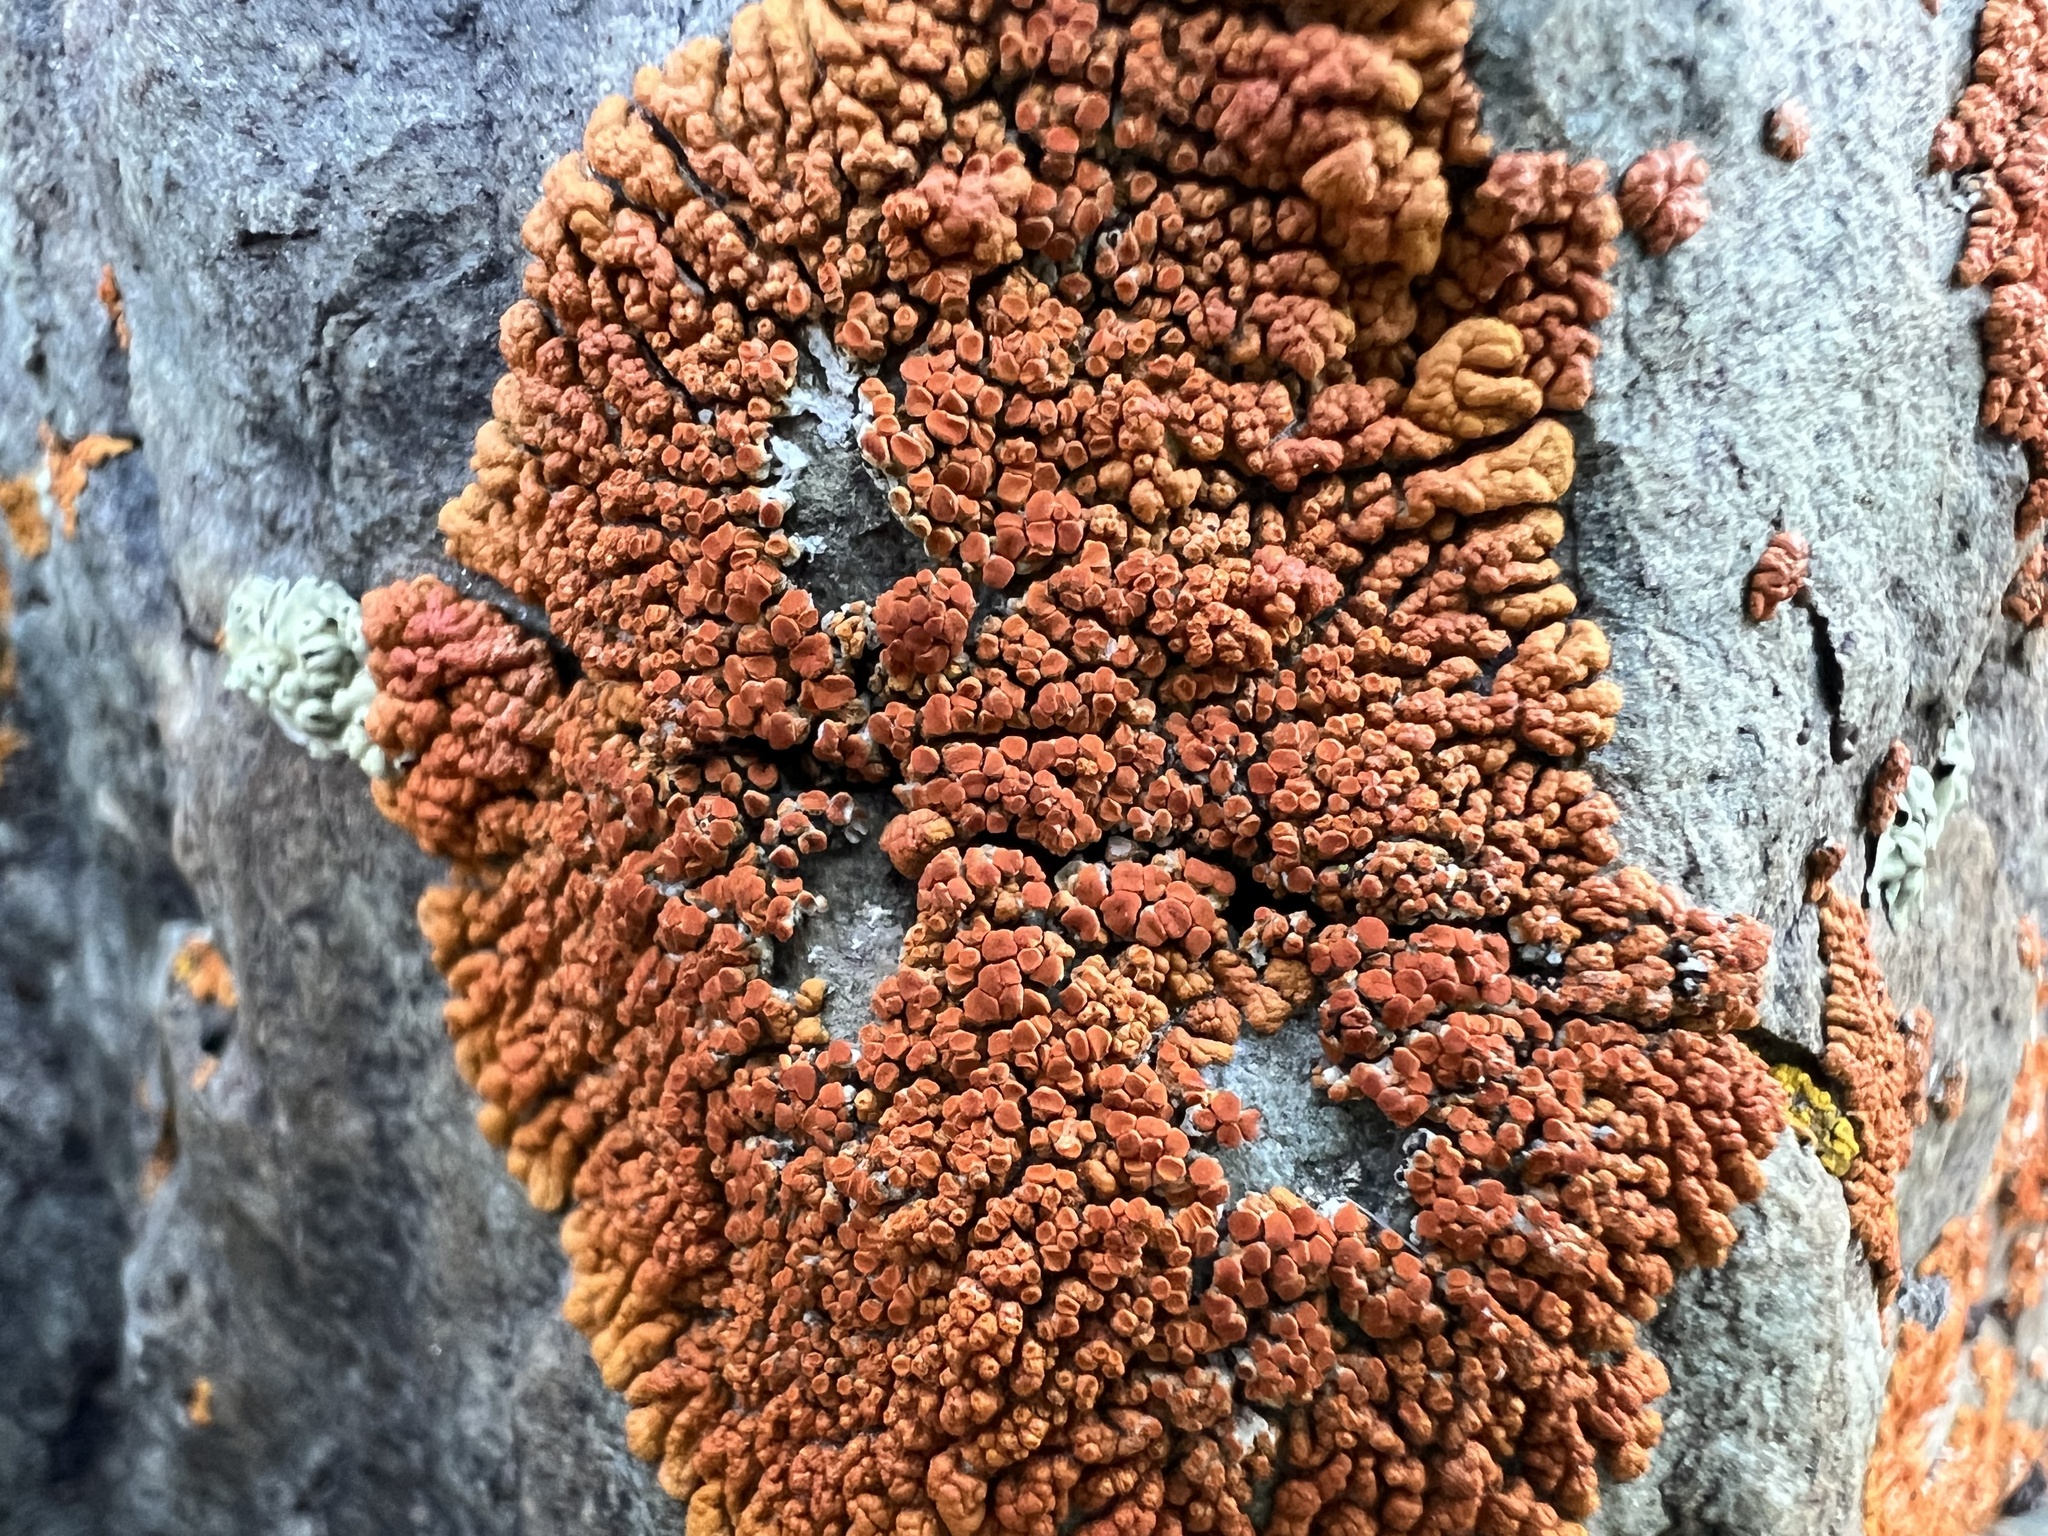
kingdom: Fungi
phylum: Ascomycota
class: Lecanoromycetes
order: Teloschistales
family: Teloschistaceae
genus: Golubkovia
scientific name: Golubkovia trachyphylla
